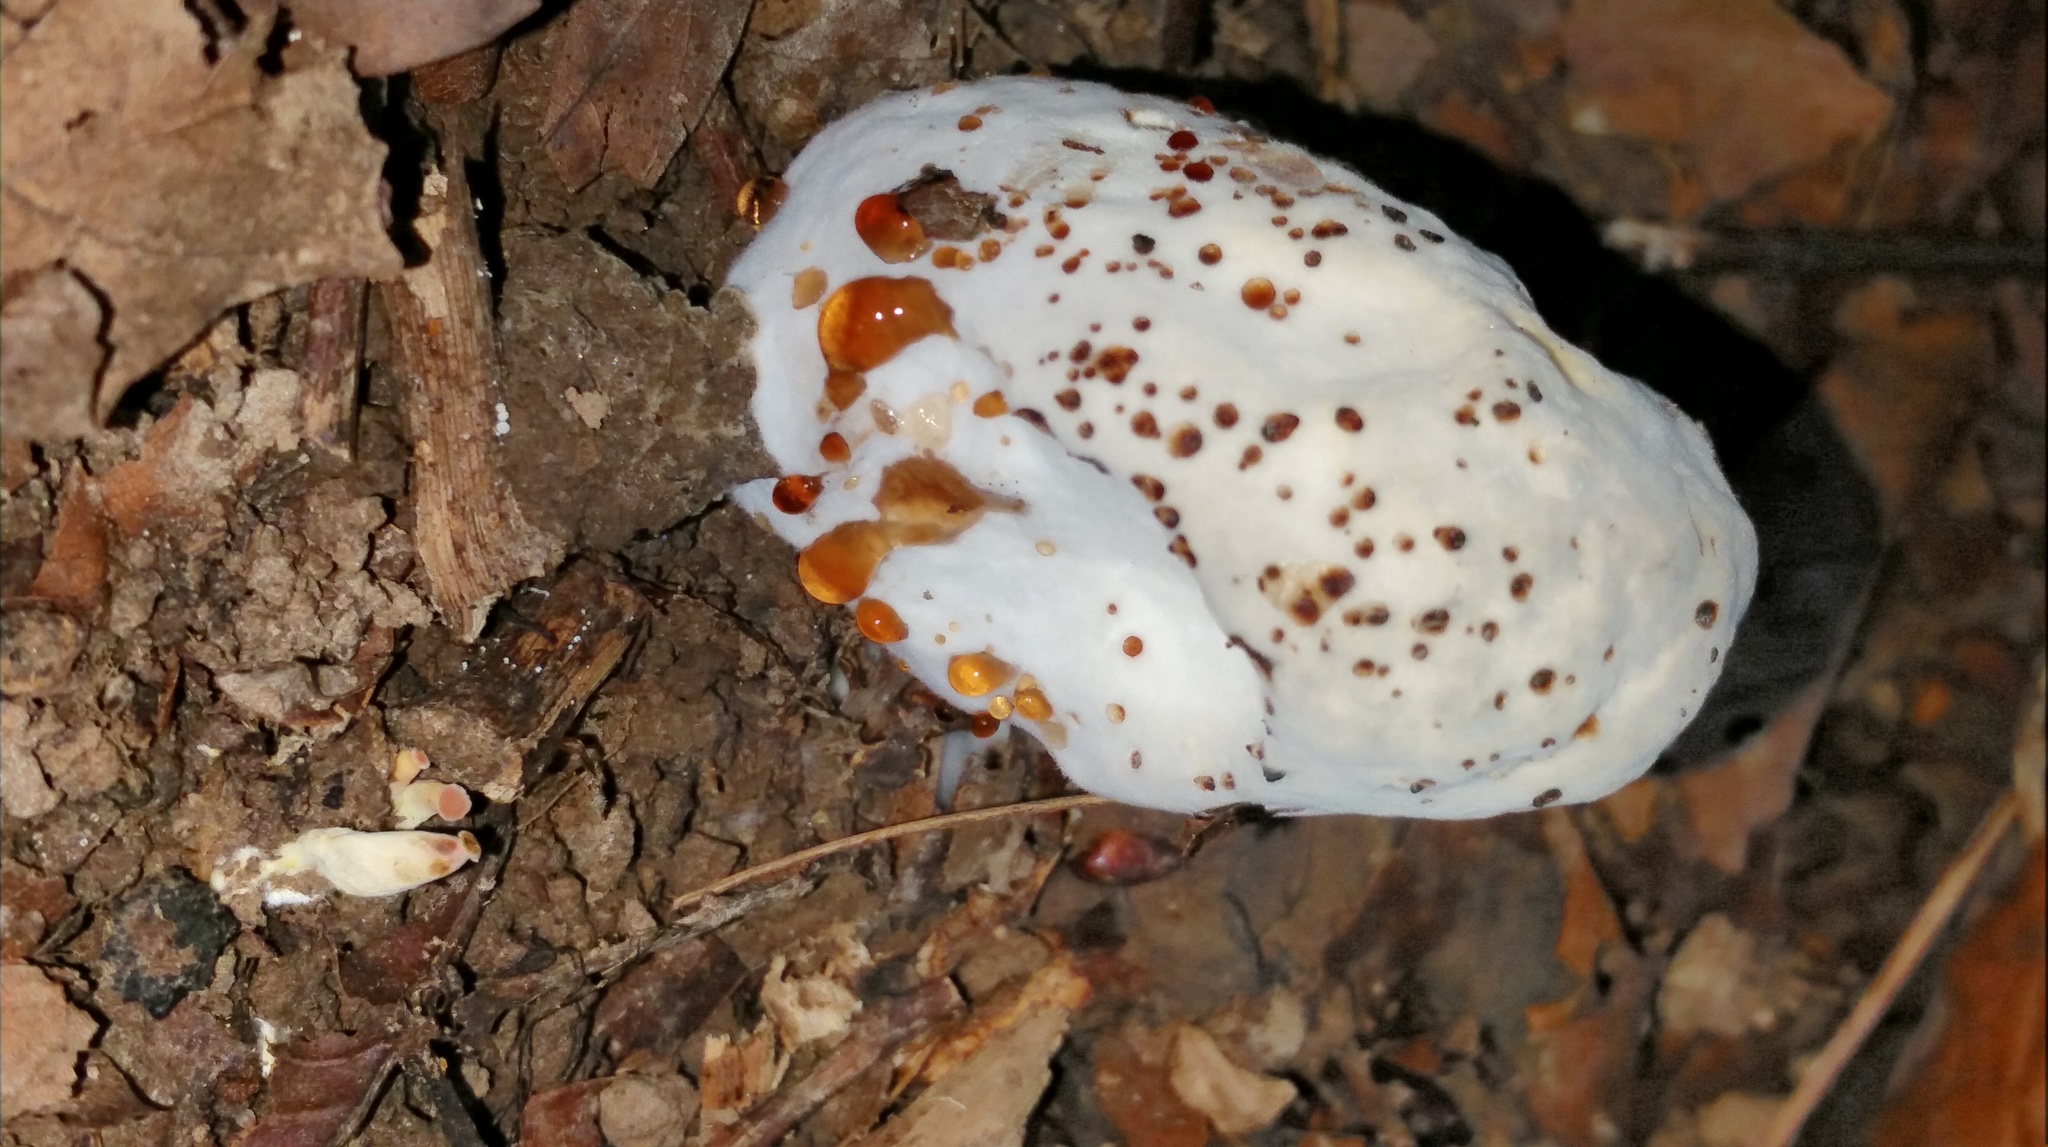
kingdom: Fungi
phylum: Ascomycota
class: Sordariomycetes
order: Hypocreales
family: Hypocreaceae
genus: Hypomyces
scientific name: Hypomyces chrysospermus
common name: Bolete mould
